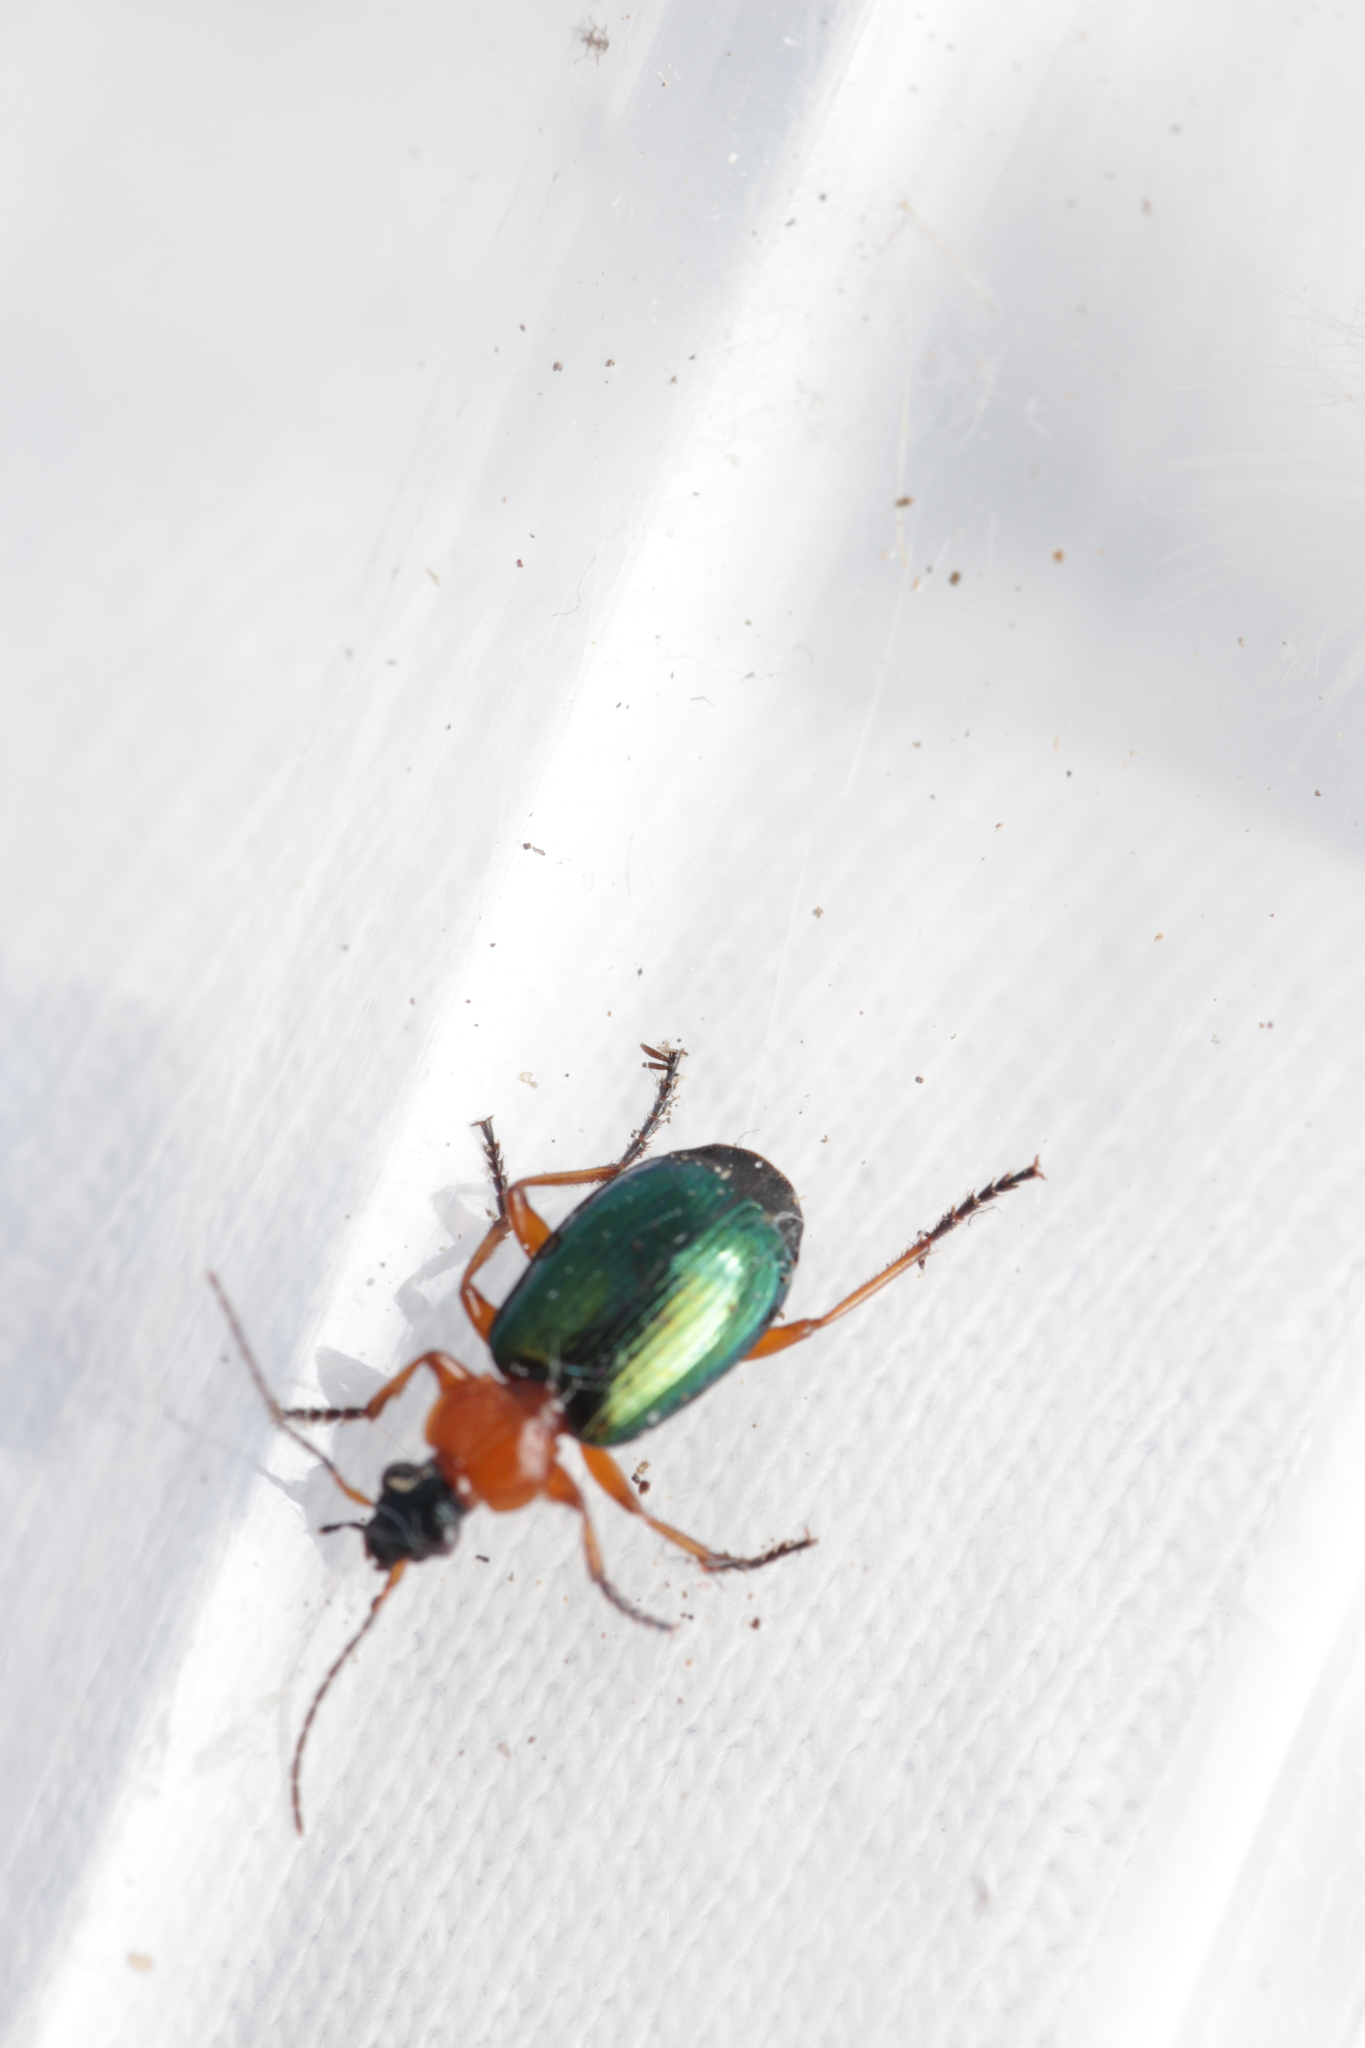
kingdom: Animalia
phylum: Arthropoda
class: Insecta
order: Coleoptera
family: Carabidae
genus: Lebia
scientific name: Lebia chlorocephala
